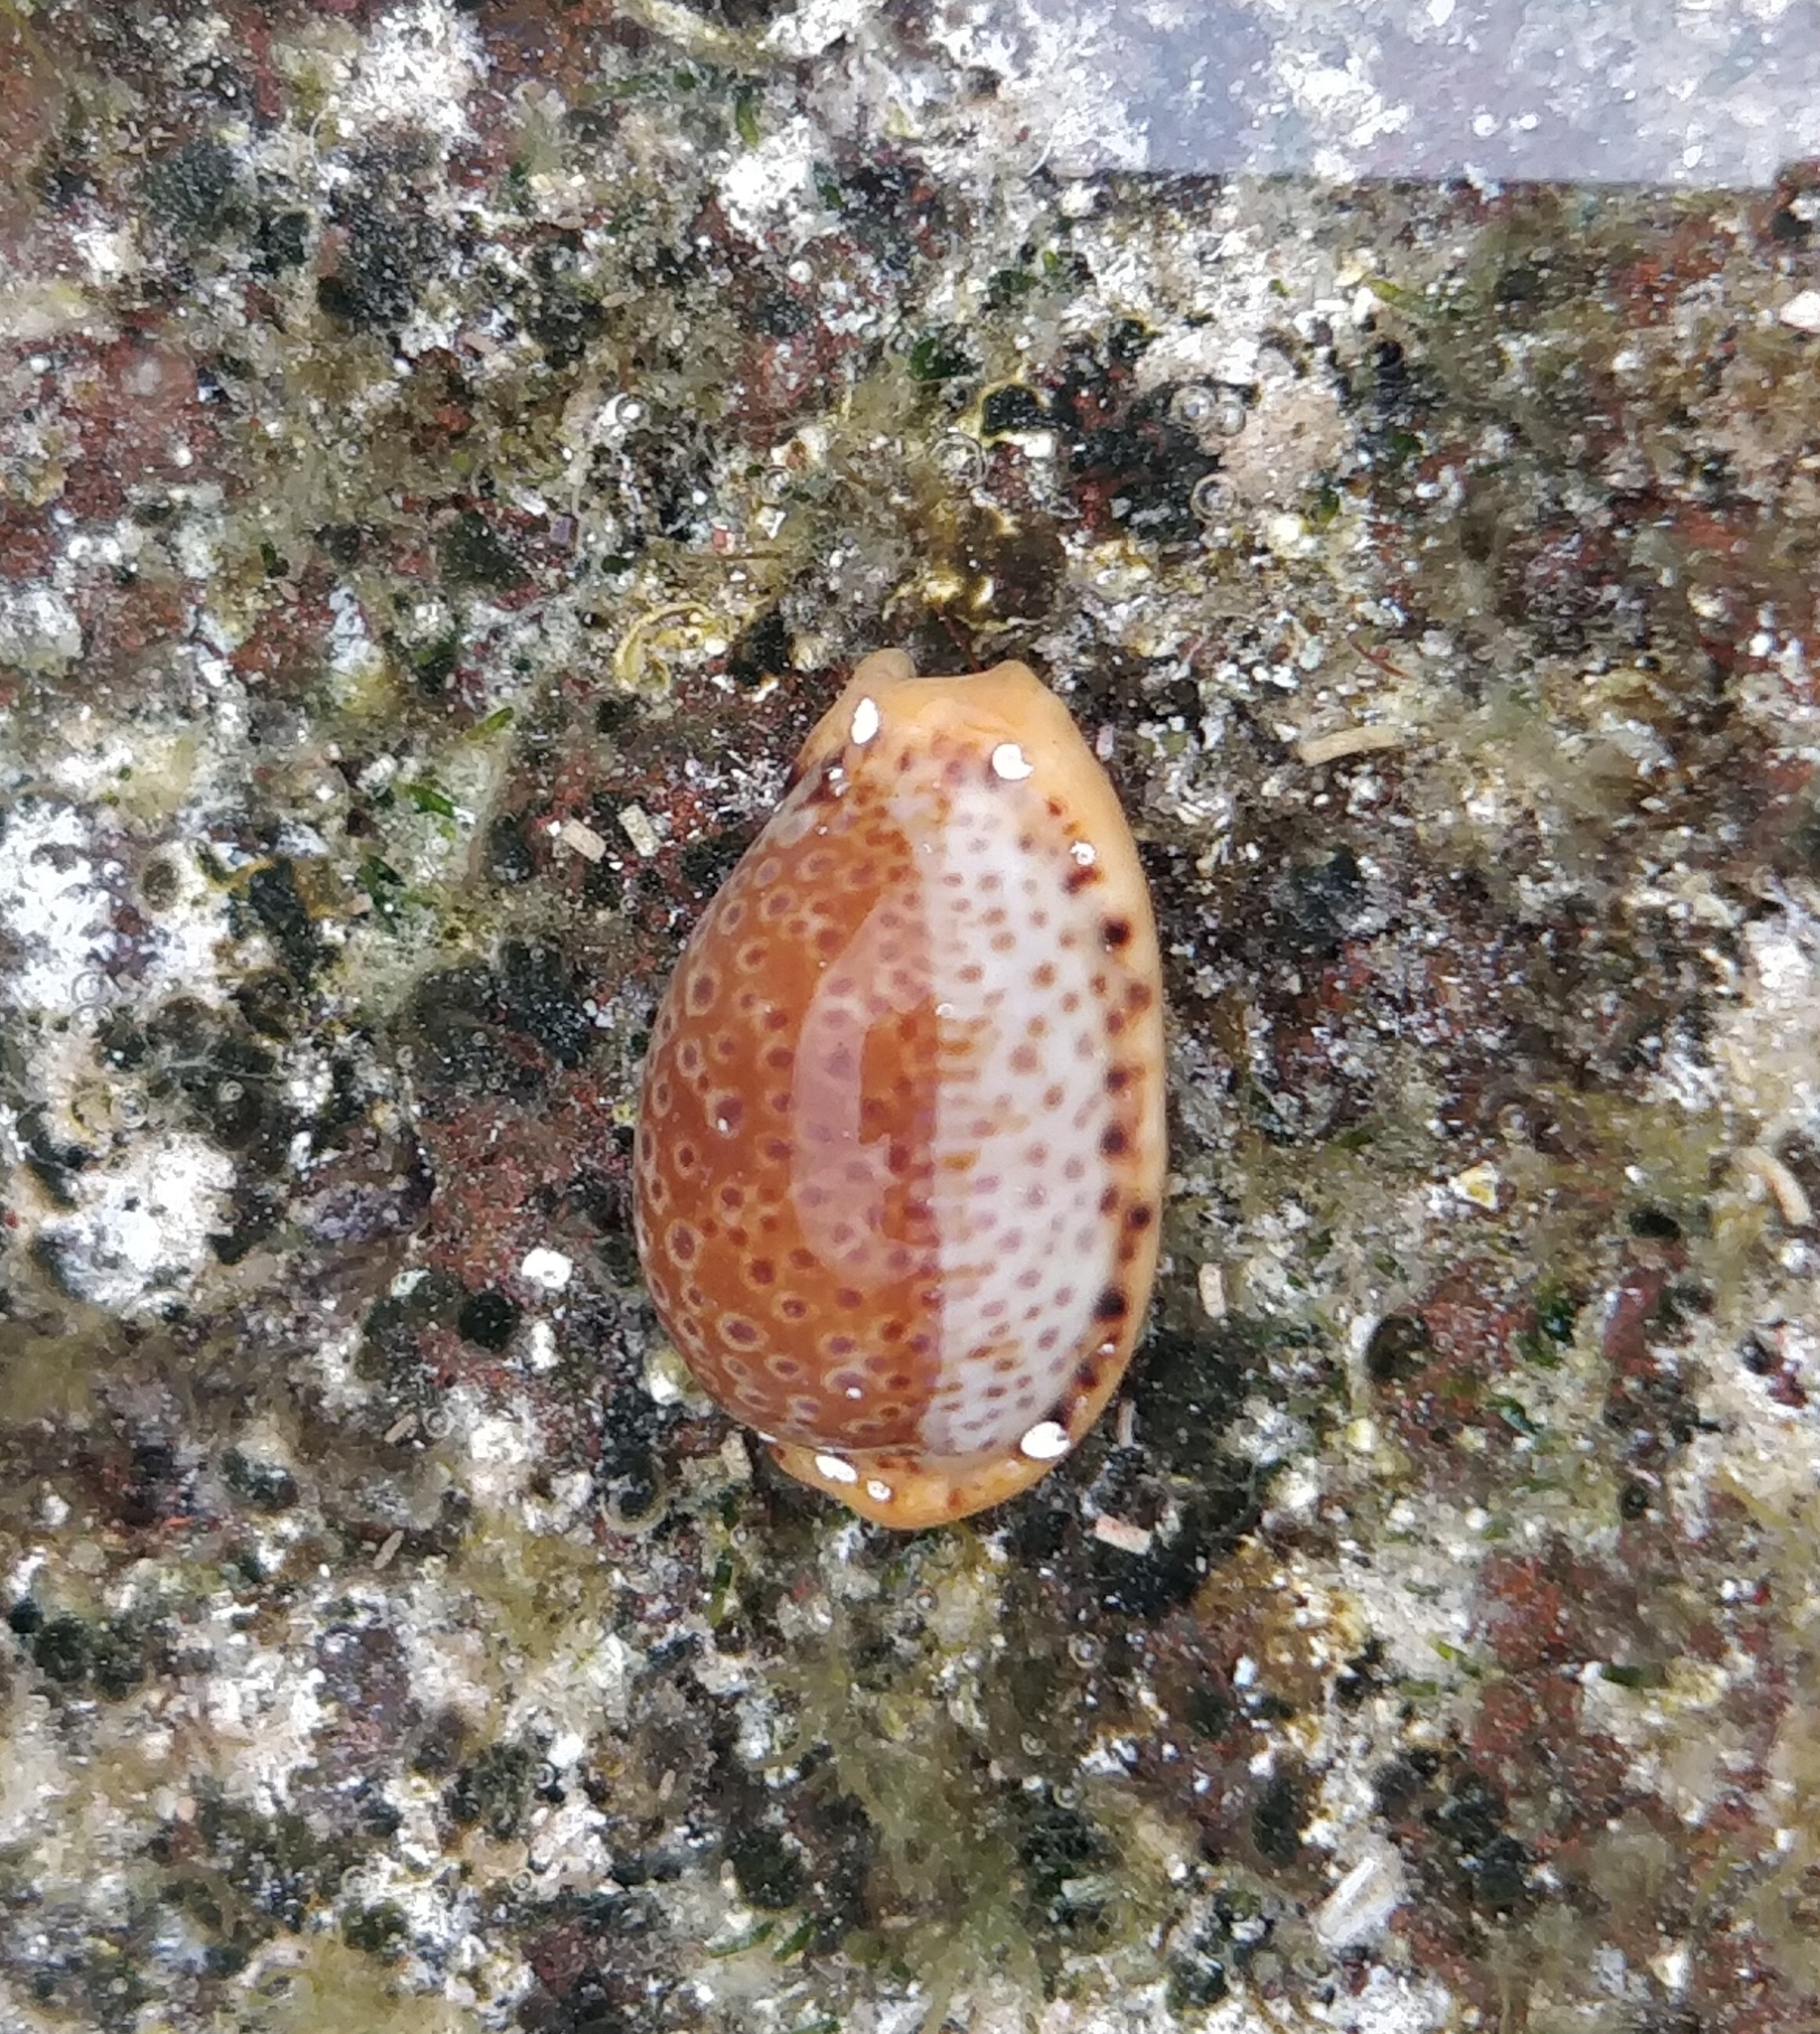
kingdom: Animalia
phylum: Mollusca
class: Gastropoda
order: Littorinimorpha
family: Cypraeidae
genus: Naria
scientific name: Naria spurca
